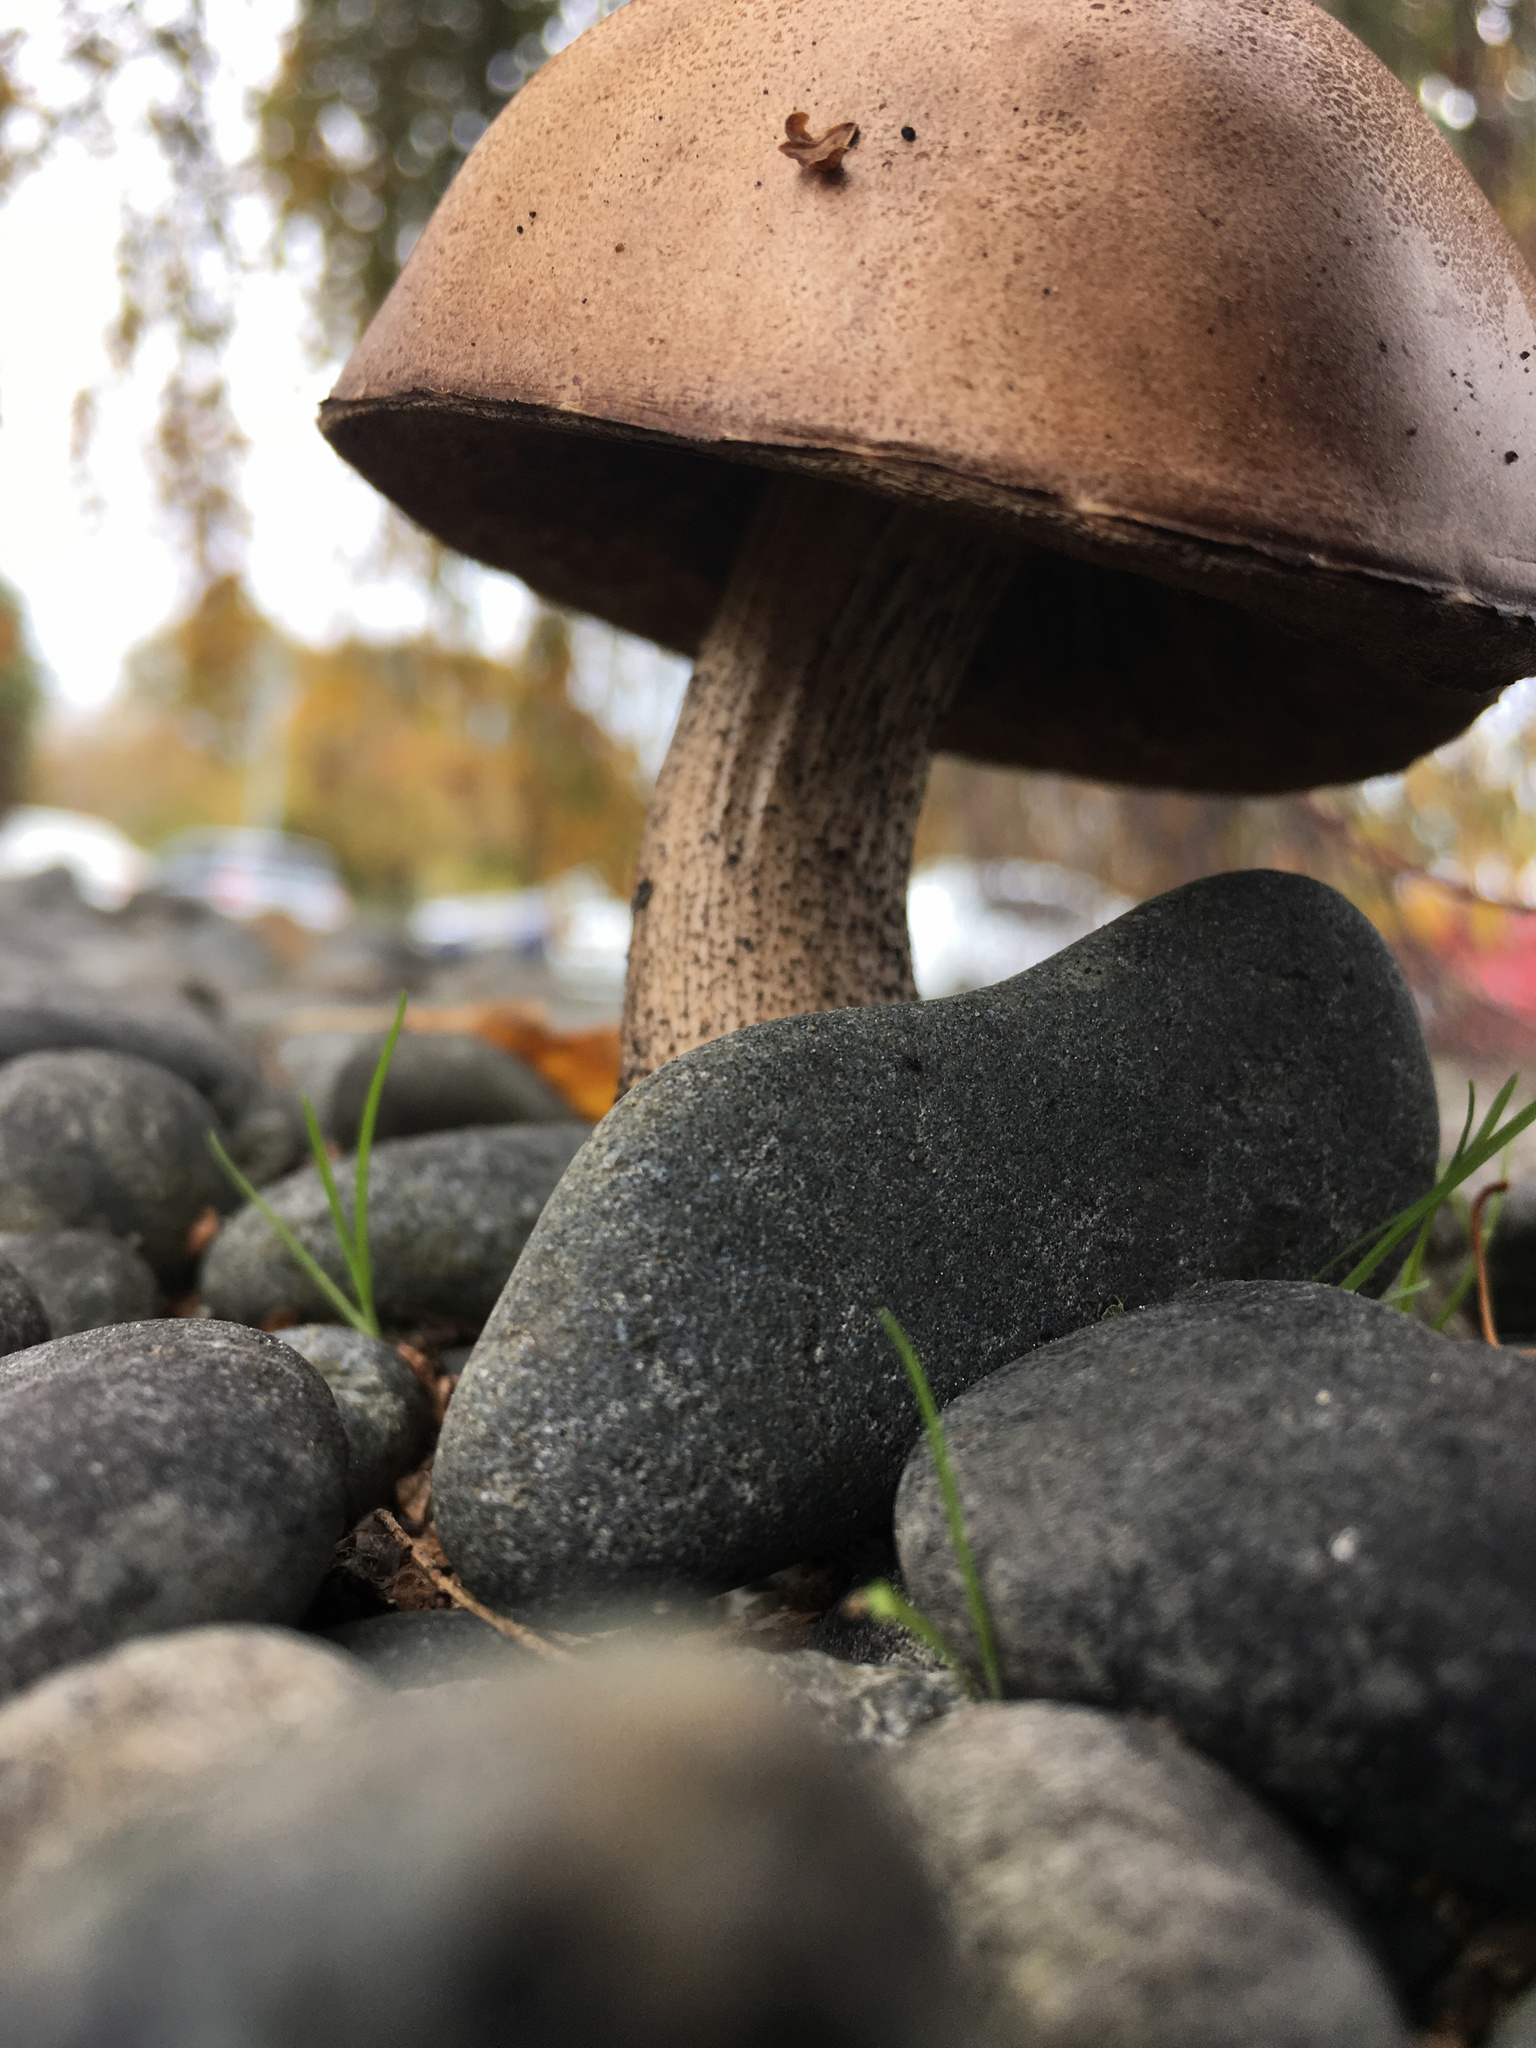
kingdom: Fungi
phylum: Basidiomycota
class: Agaricomycetes
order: Boletales
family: Boletaceae
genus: Leccinum
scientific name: Leccinum scabrum
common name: Blushing bolete
